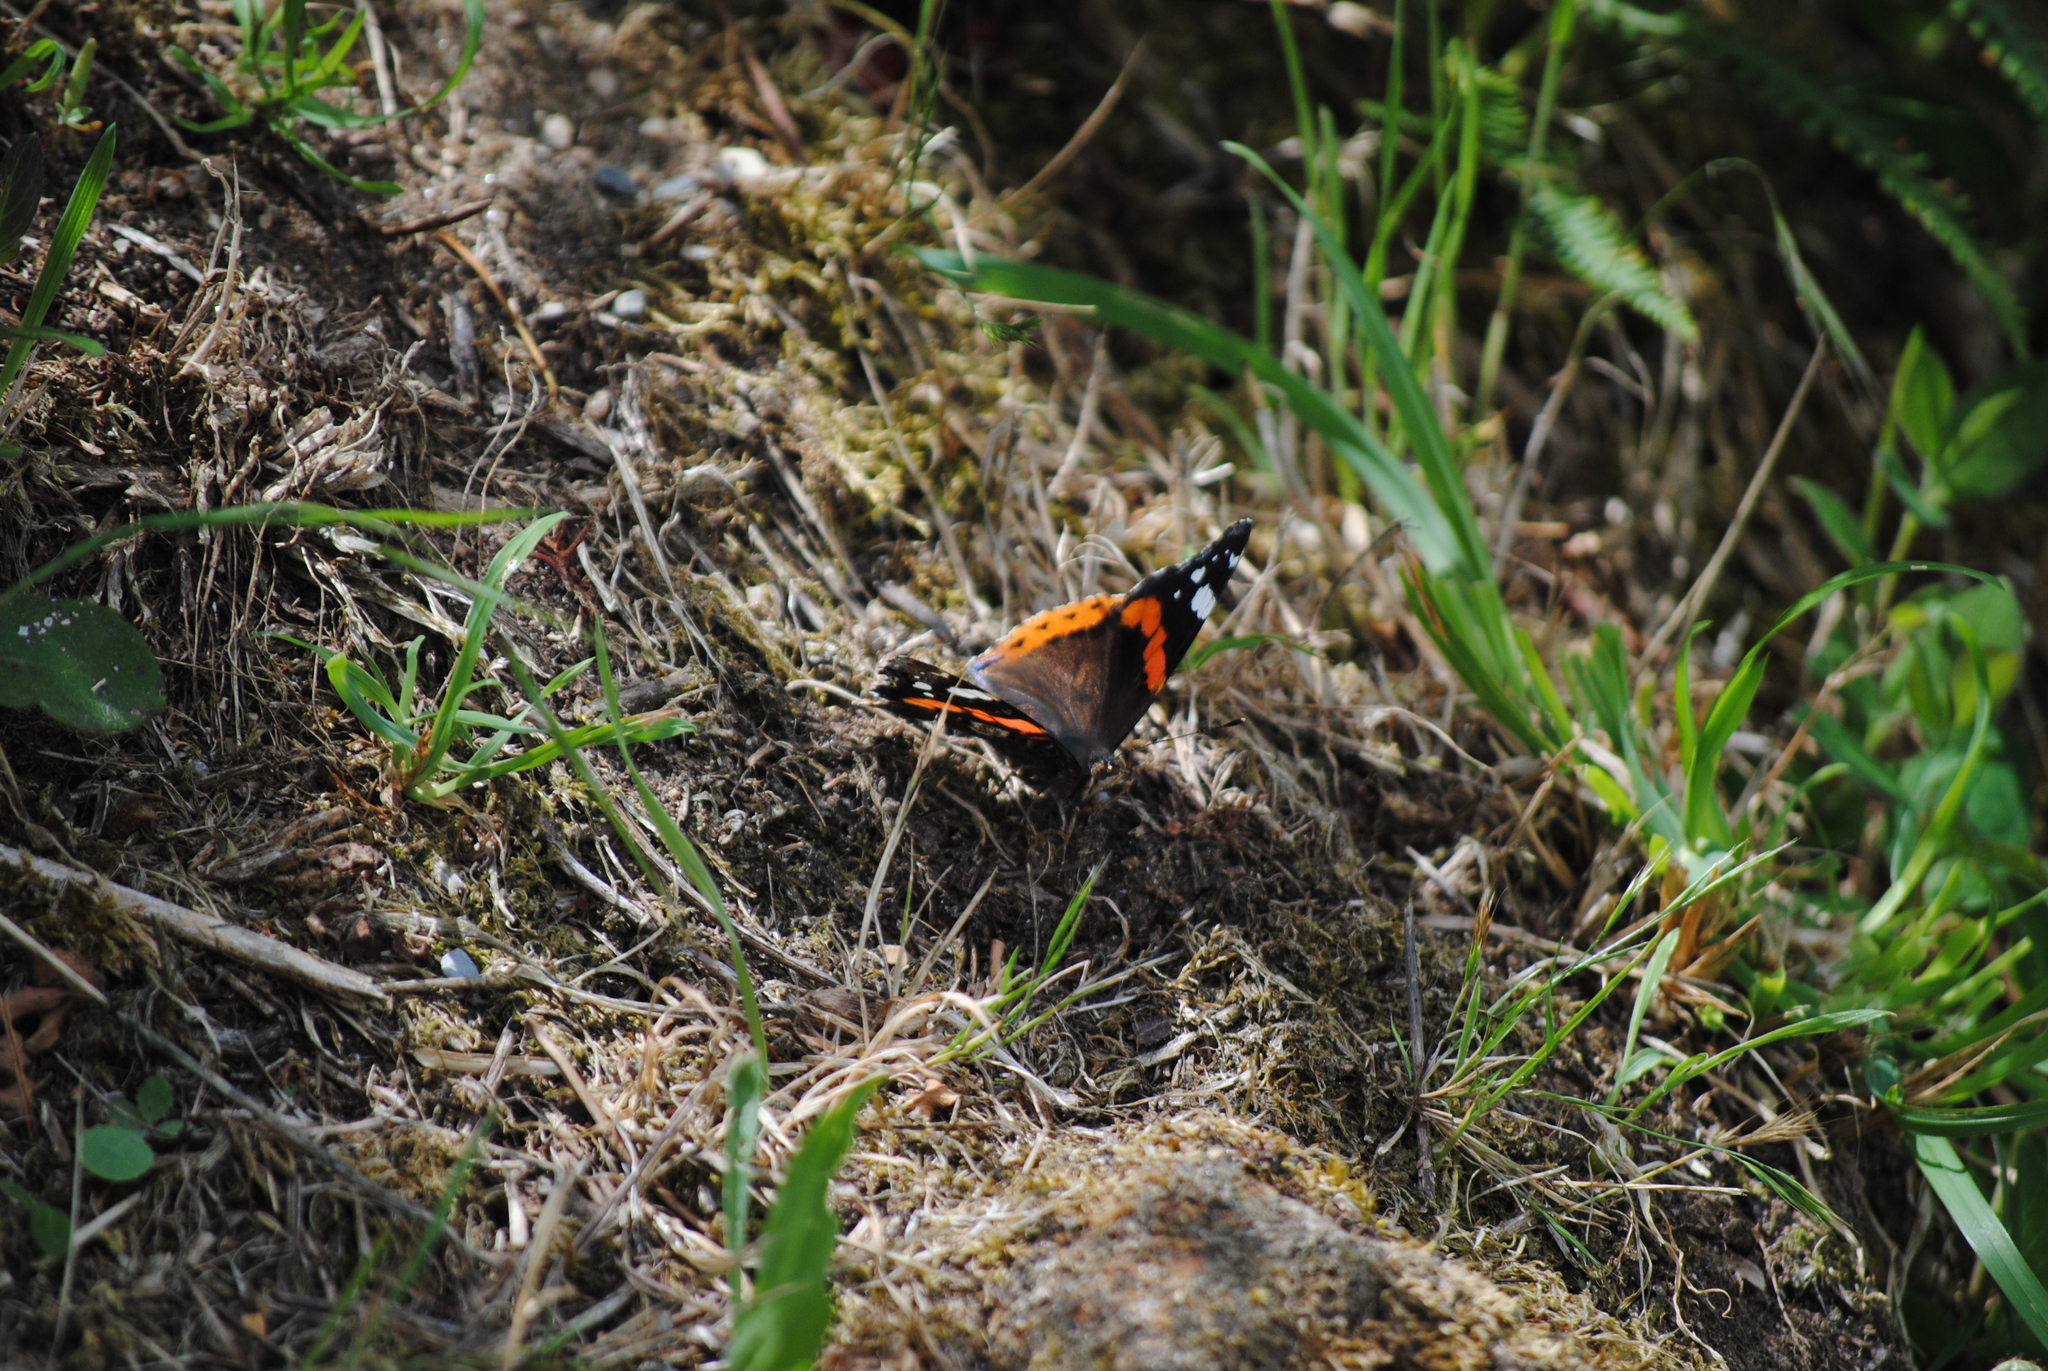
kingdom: Animalia
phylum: Arthropoda
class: Insecta
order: Lepidoptera
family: Nymphalidae
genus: Vanessa
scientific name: Vanessa atalanta
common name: Red admiral
